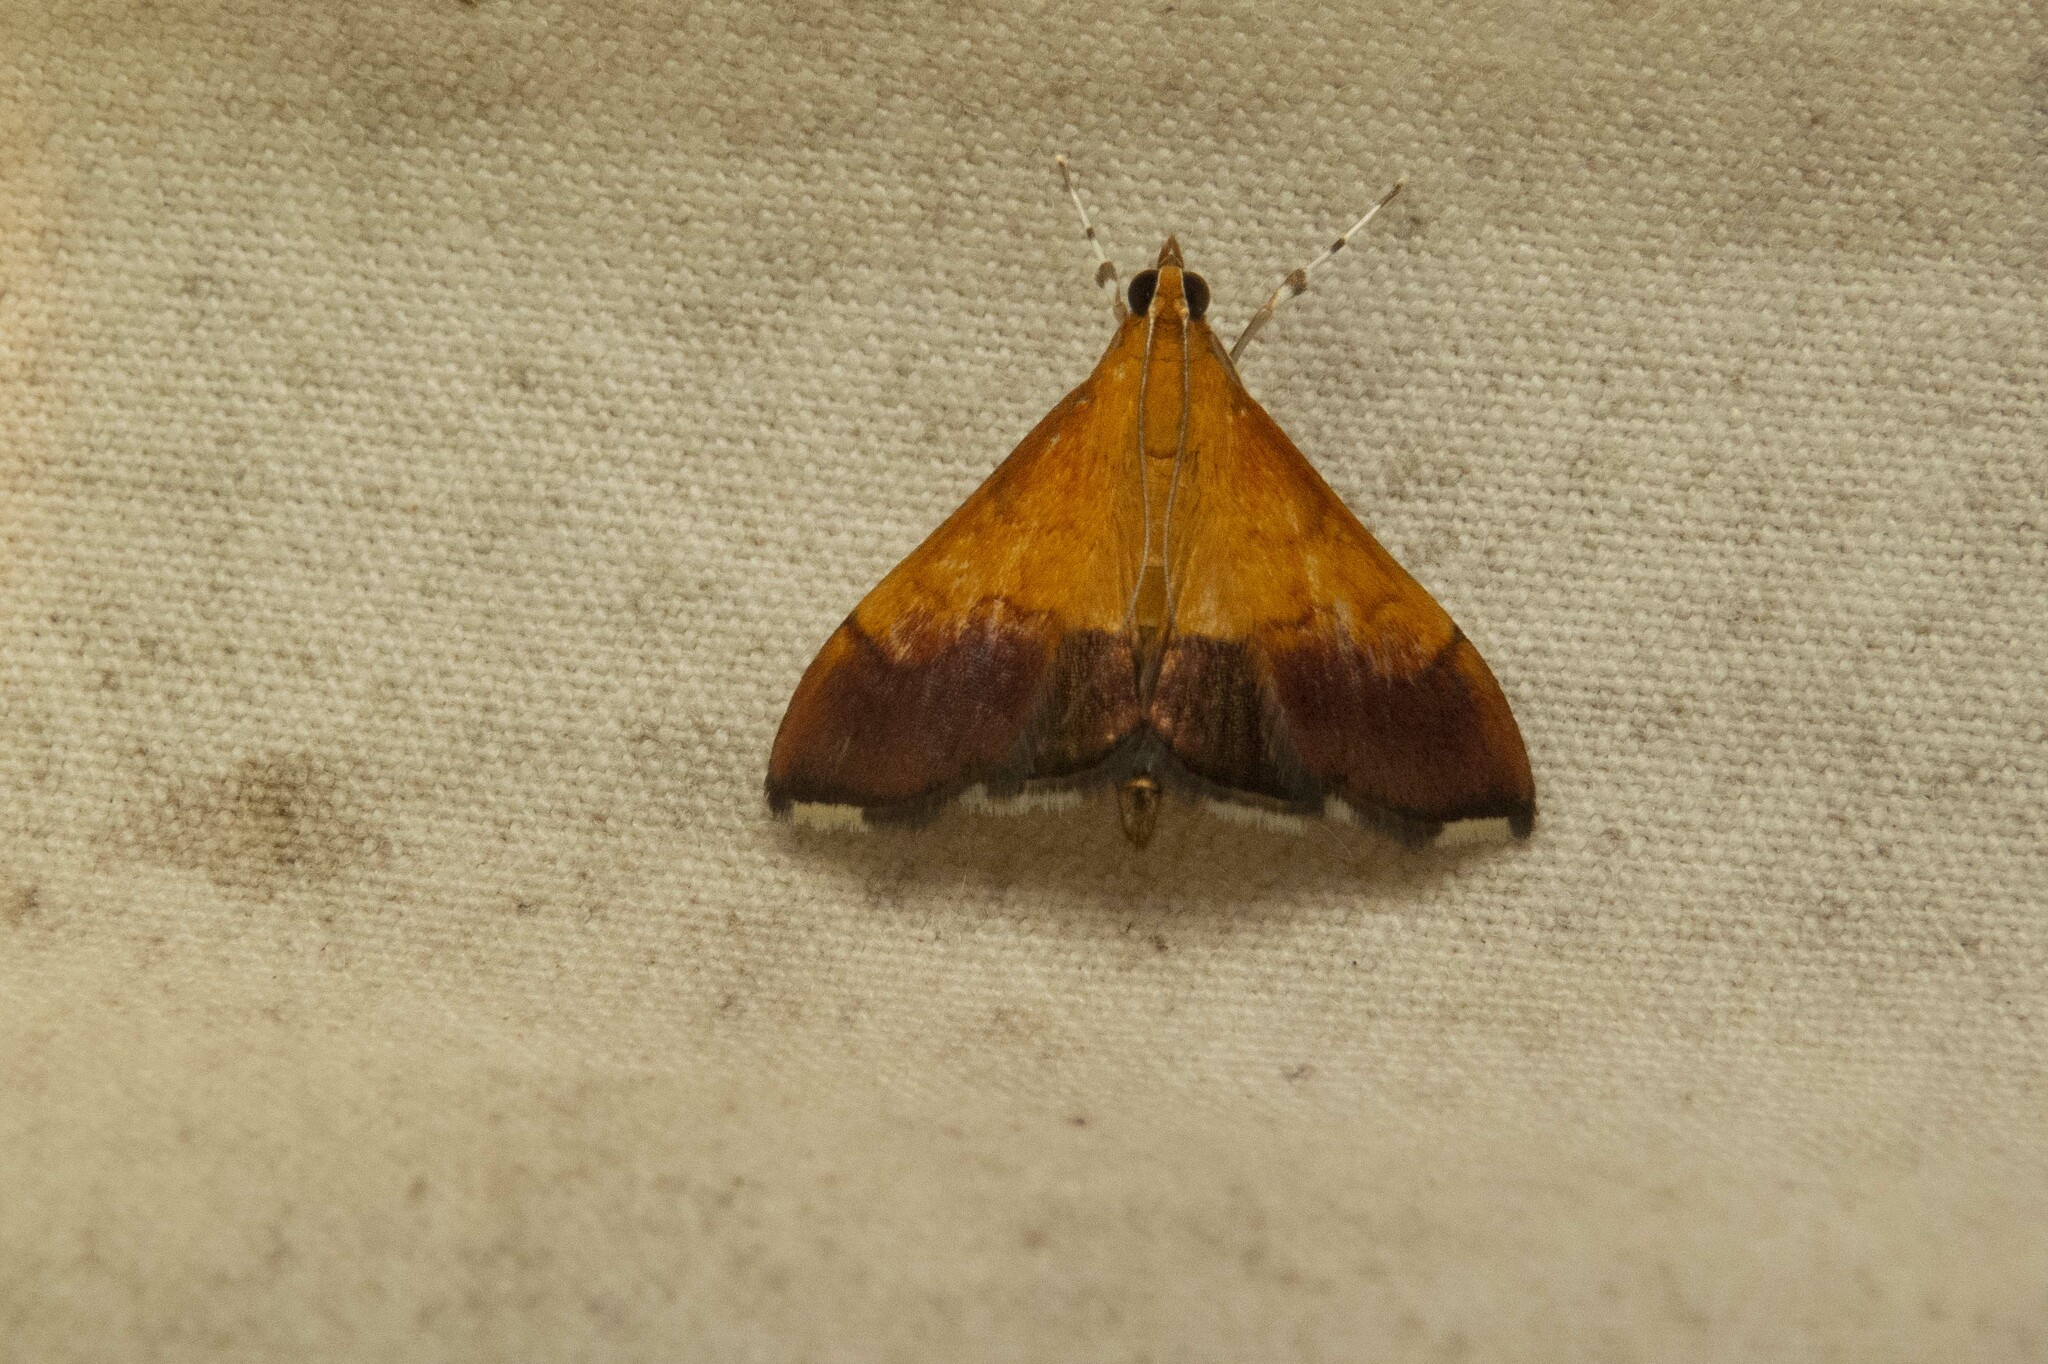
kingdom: Animalia
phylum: Arthropoda
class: Insecta
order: Lepidoptera
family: Crambidae
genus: Pyrausta
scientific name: Pyrausta bicoloralis
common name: Bicolored pyrausta moth
